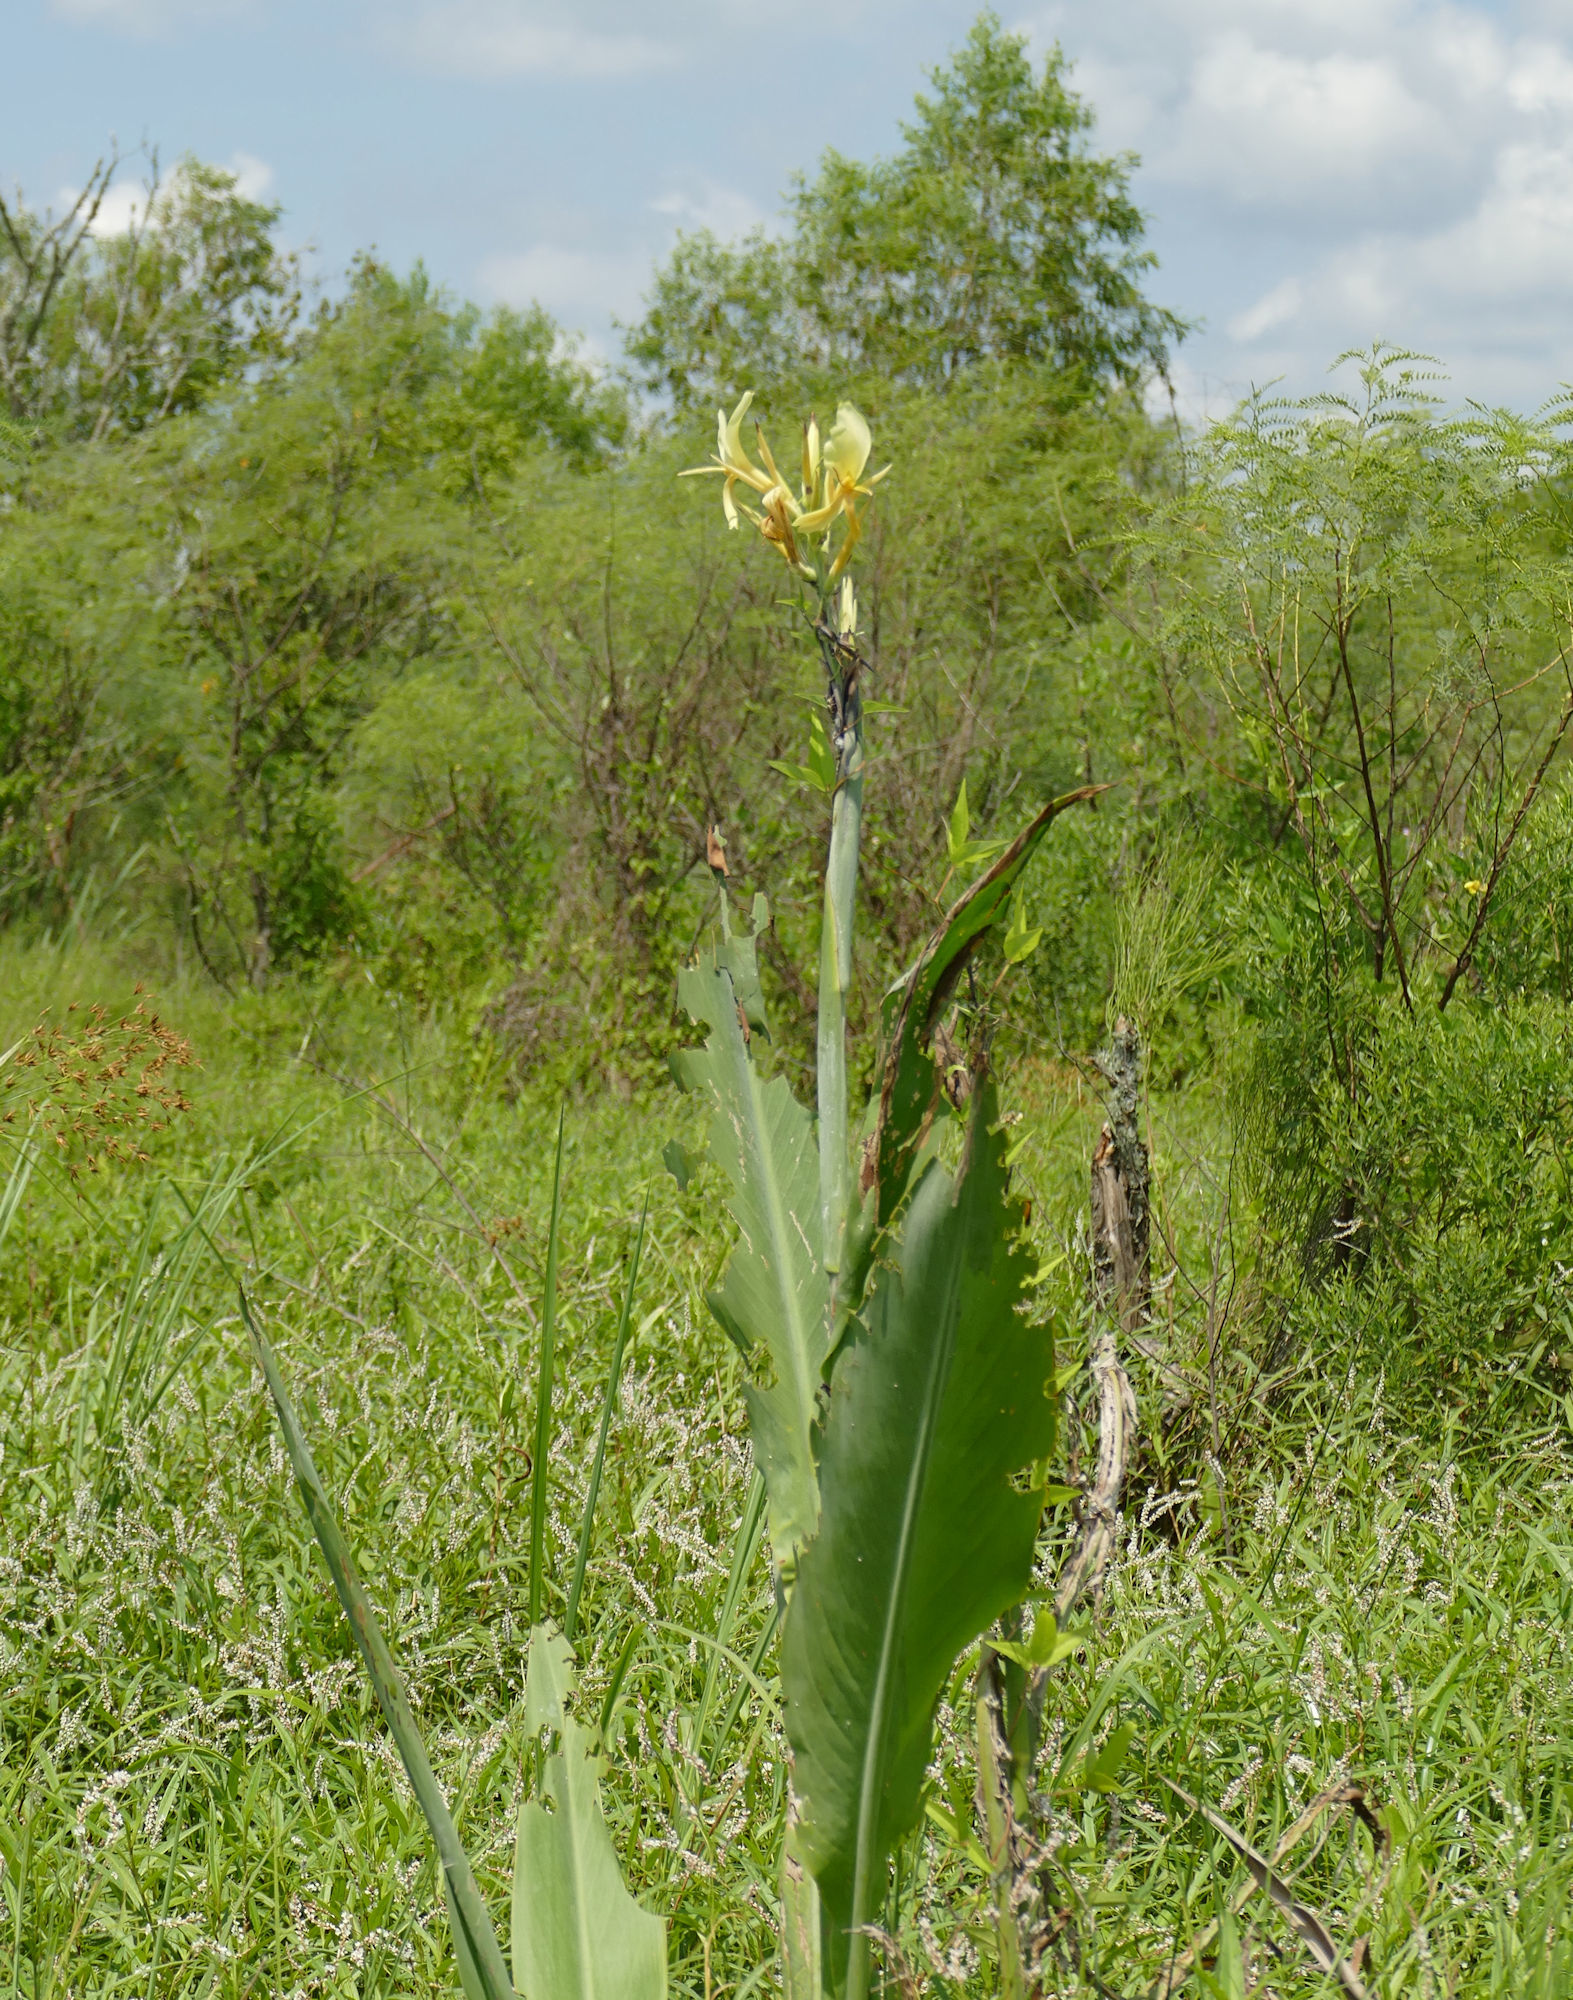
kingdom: Plantae
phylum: Tracheophyta
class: Liliopsida
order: Zingiberales
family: Cannaceae
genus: Canna
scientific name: Canna glauca
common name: Louisiana canna
